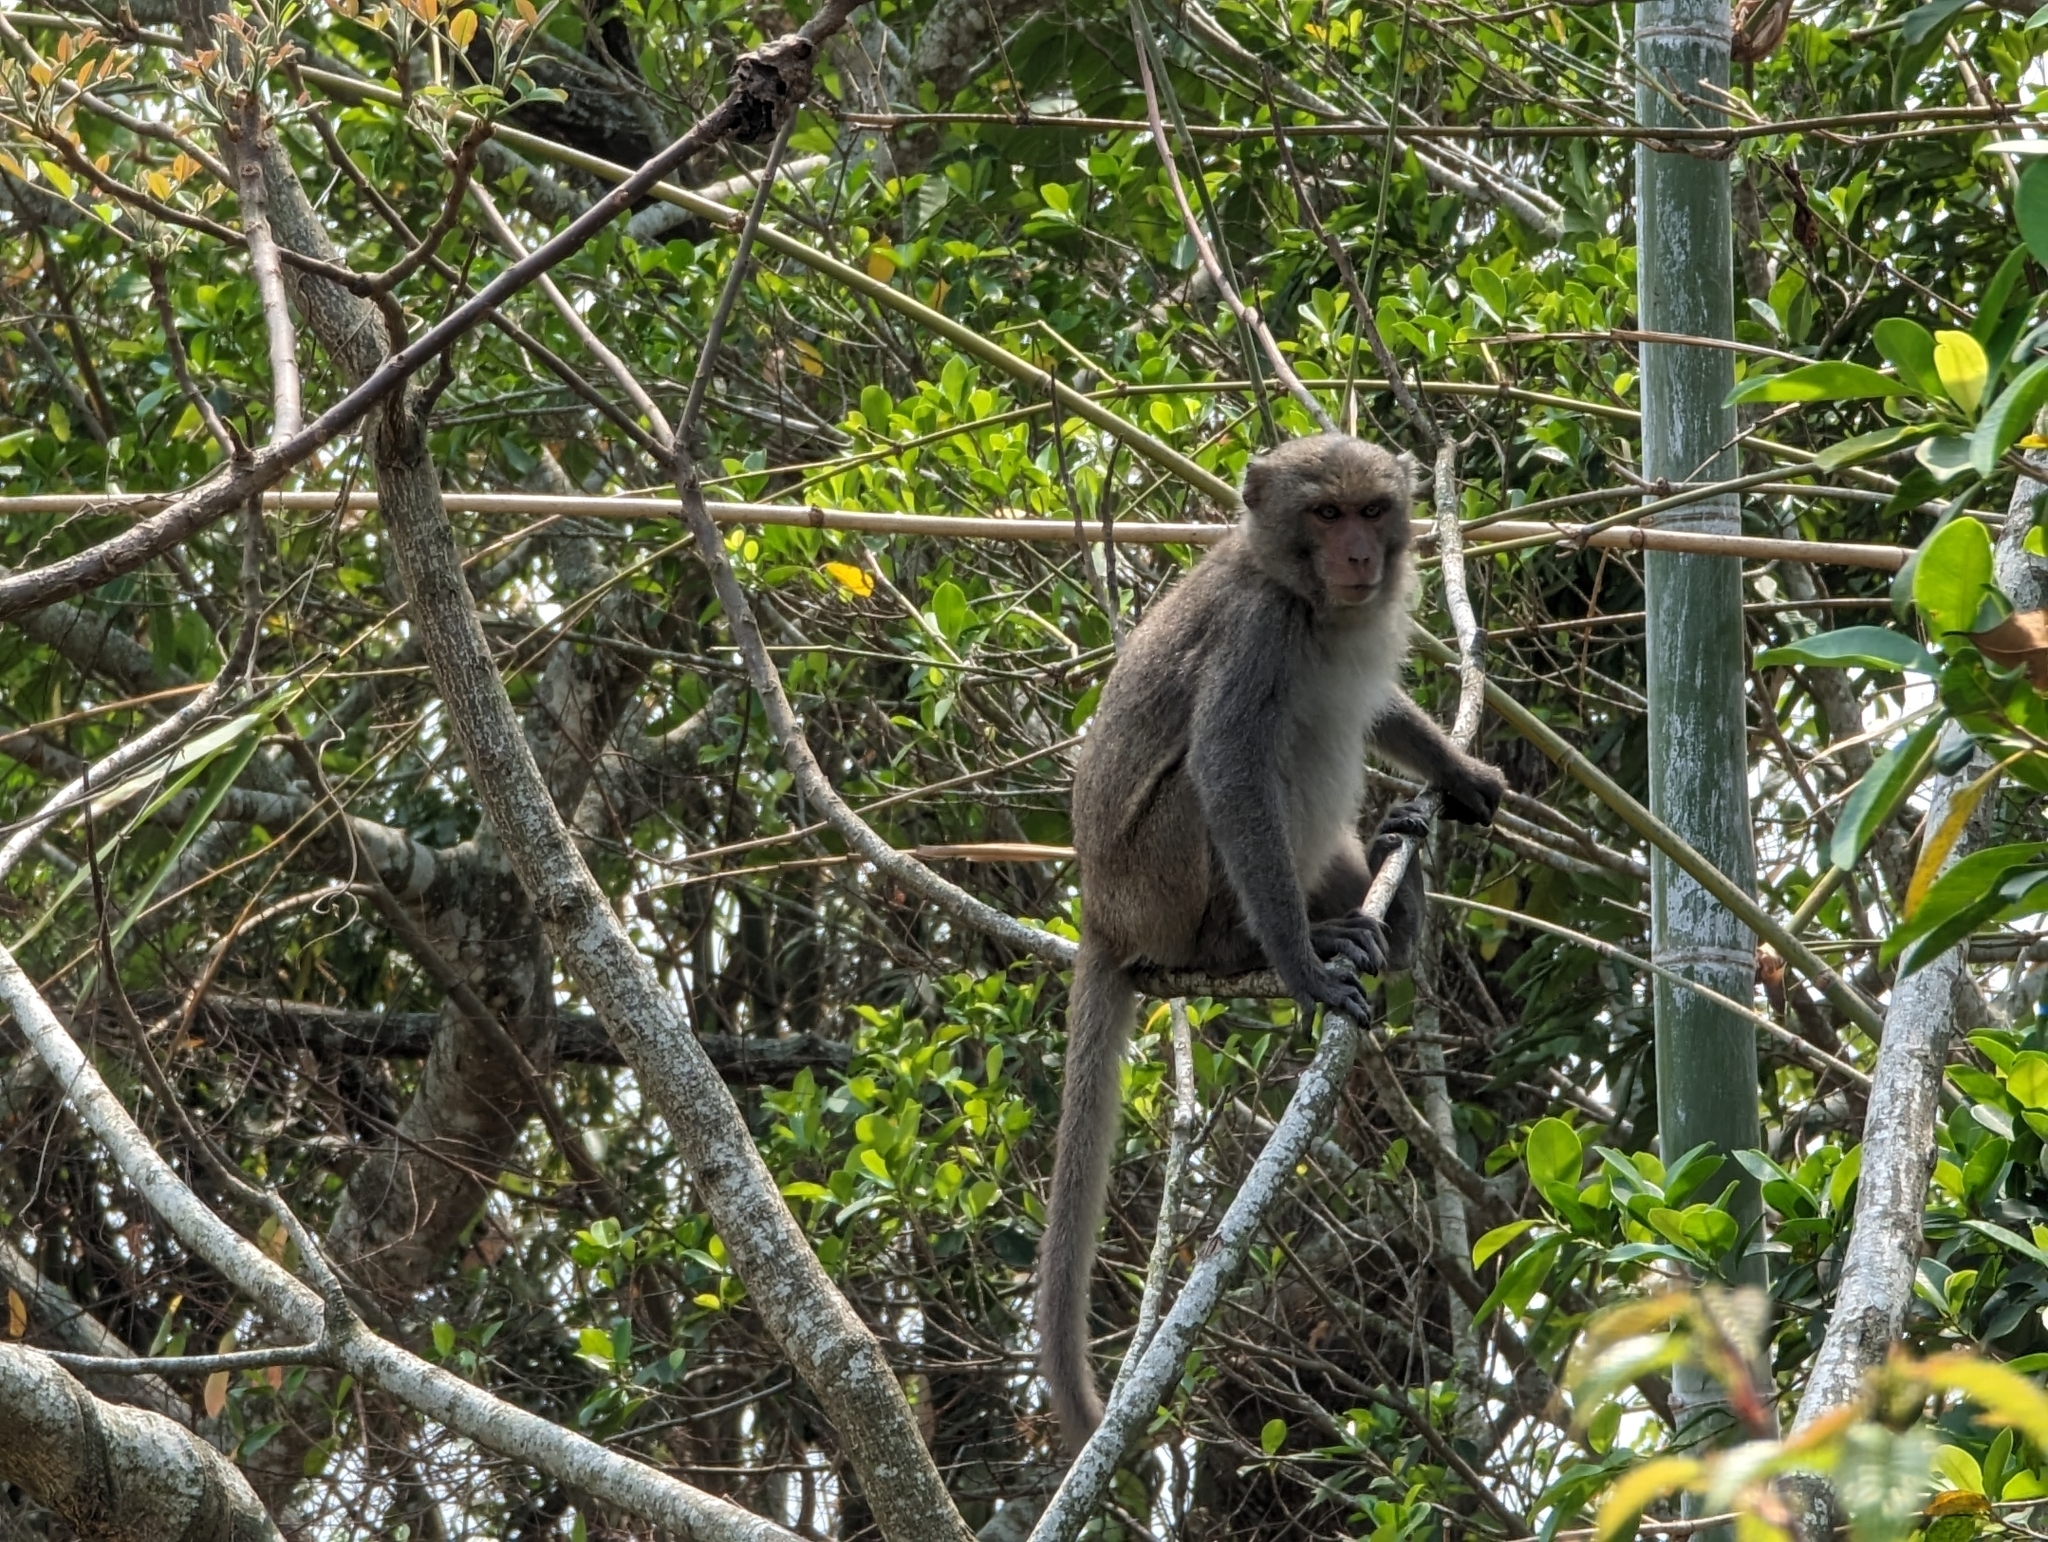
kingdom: Animalia
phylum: Chordata
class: Mammalia
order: Primates
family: Cercopithecidae
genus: Macaca
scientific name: Macaca cyclopis
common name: Formosan rock macaque
